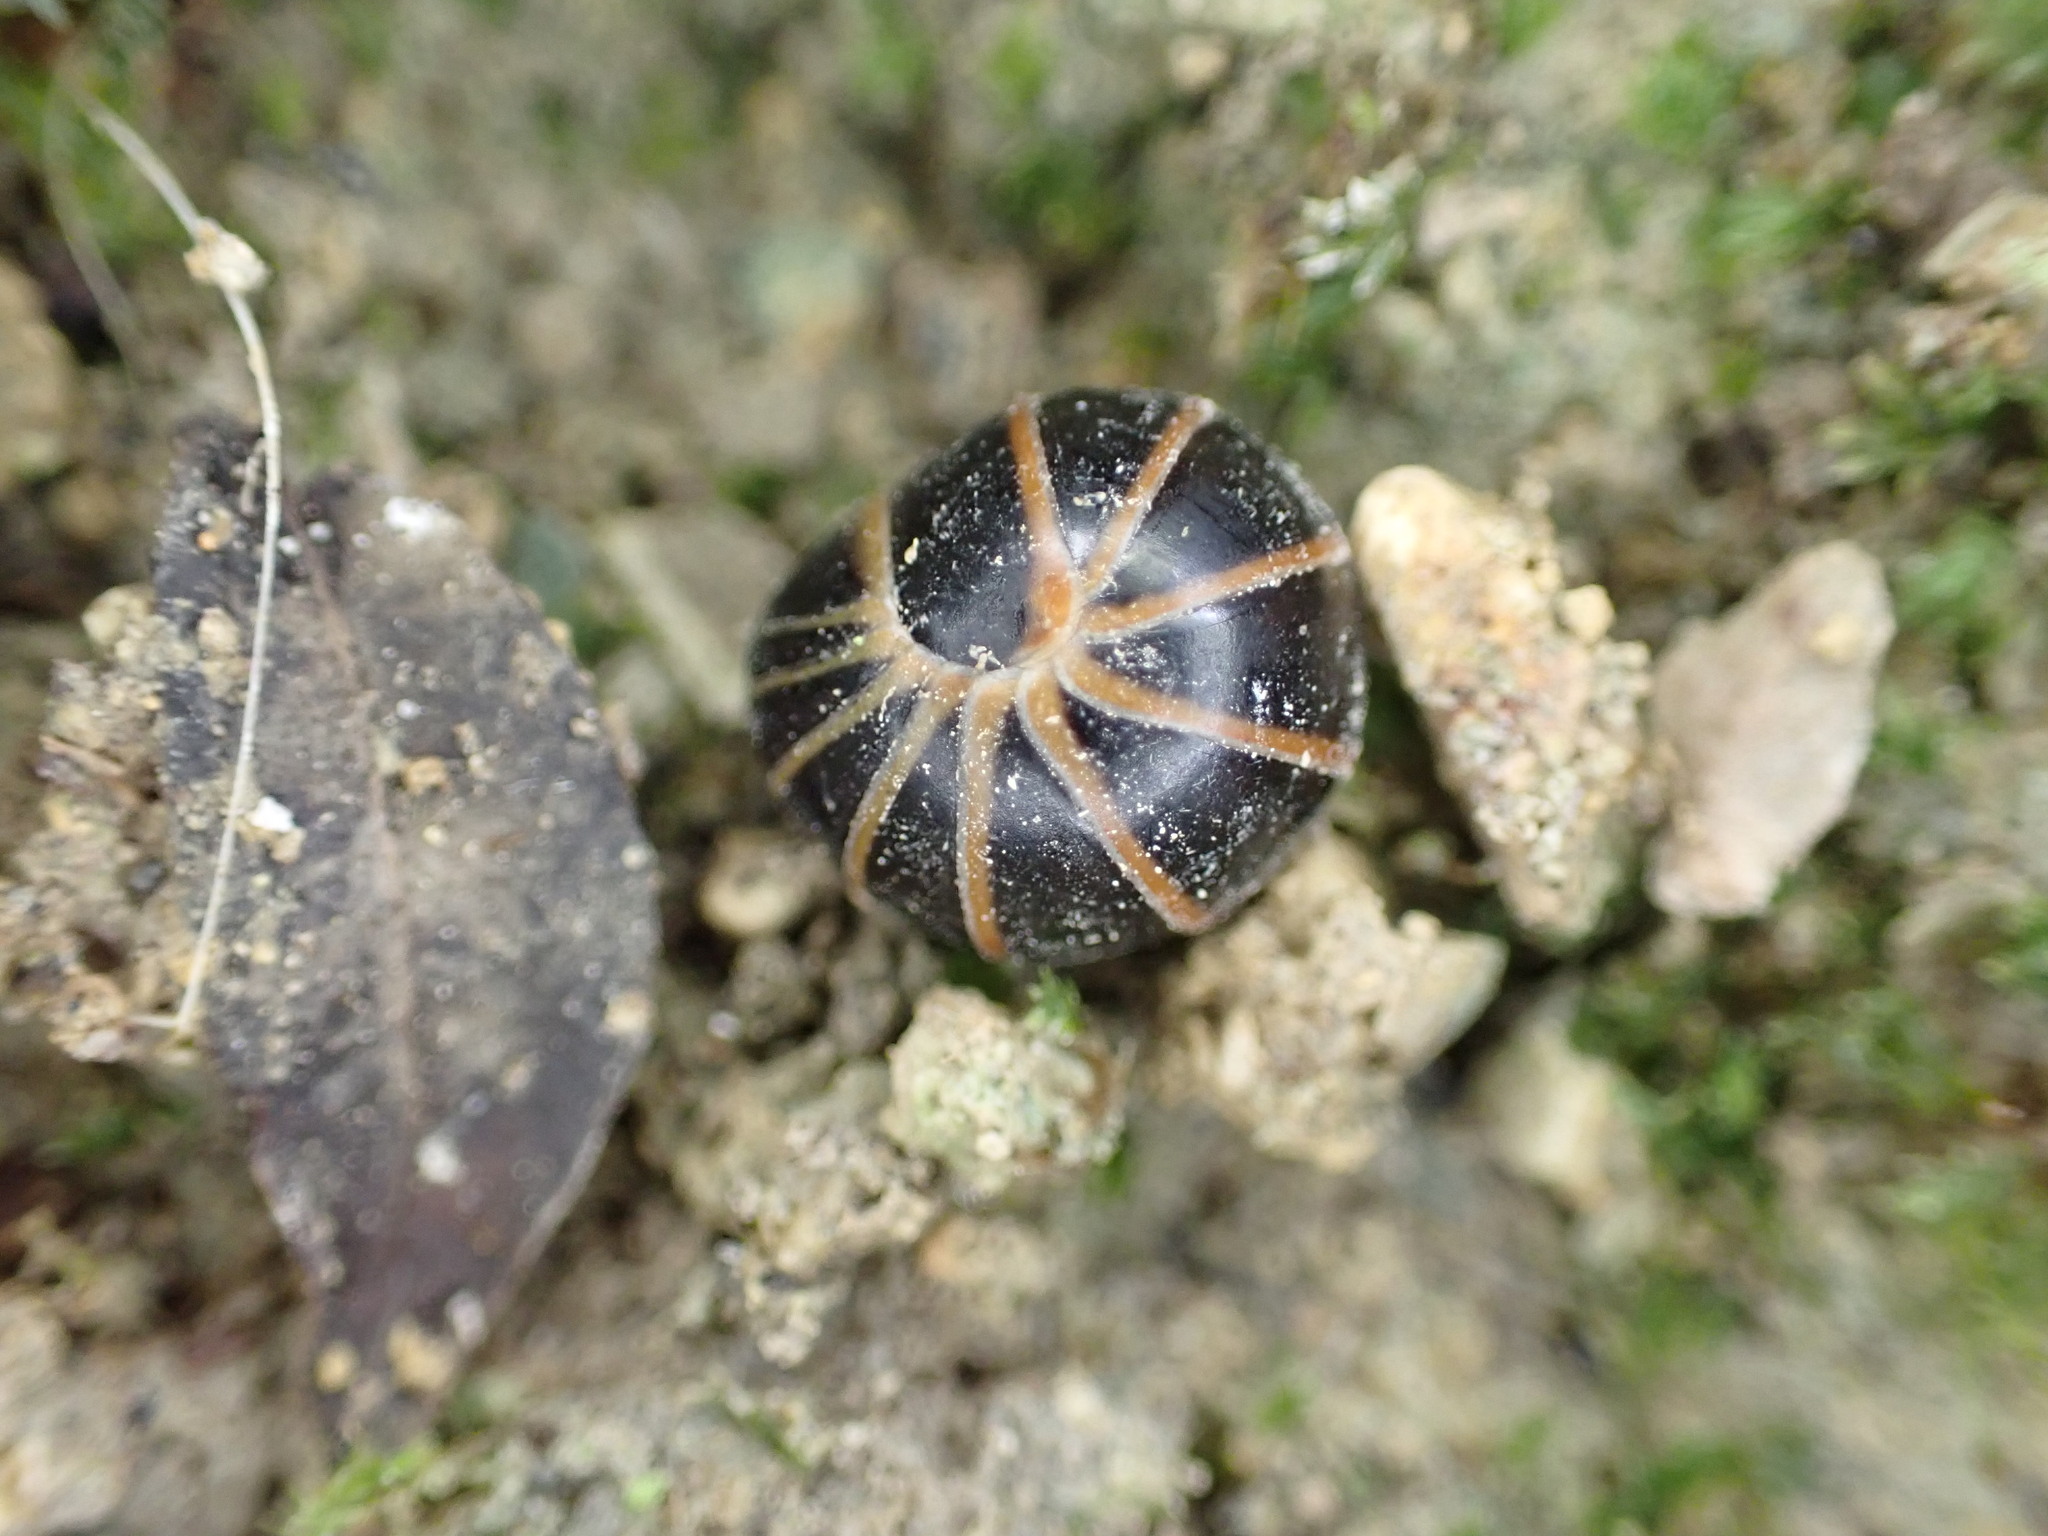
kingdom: Animalia
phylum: Arthropoda
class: Diplopoda
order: Glomerida
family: Glomeridae
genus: Glomeris
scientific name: Glomeris marginata
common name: Bordered pill millipede
